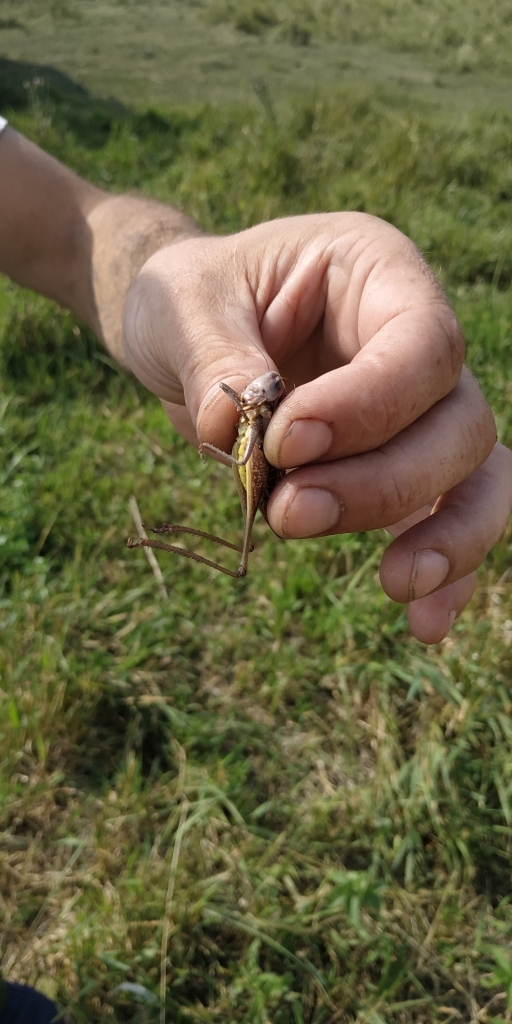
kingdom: Animalia
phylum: Arthropoda
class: Insecta
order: Orthoptera
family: Tettigoniidae
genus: Decticus
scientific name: Decticus verrucivorus
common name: Wart-biter
